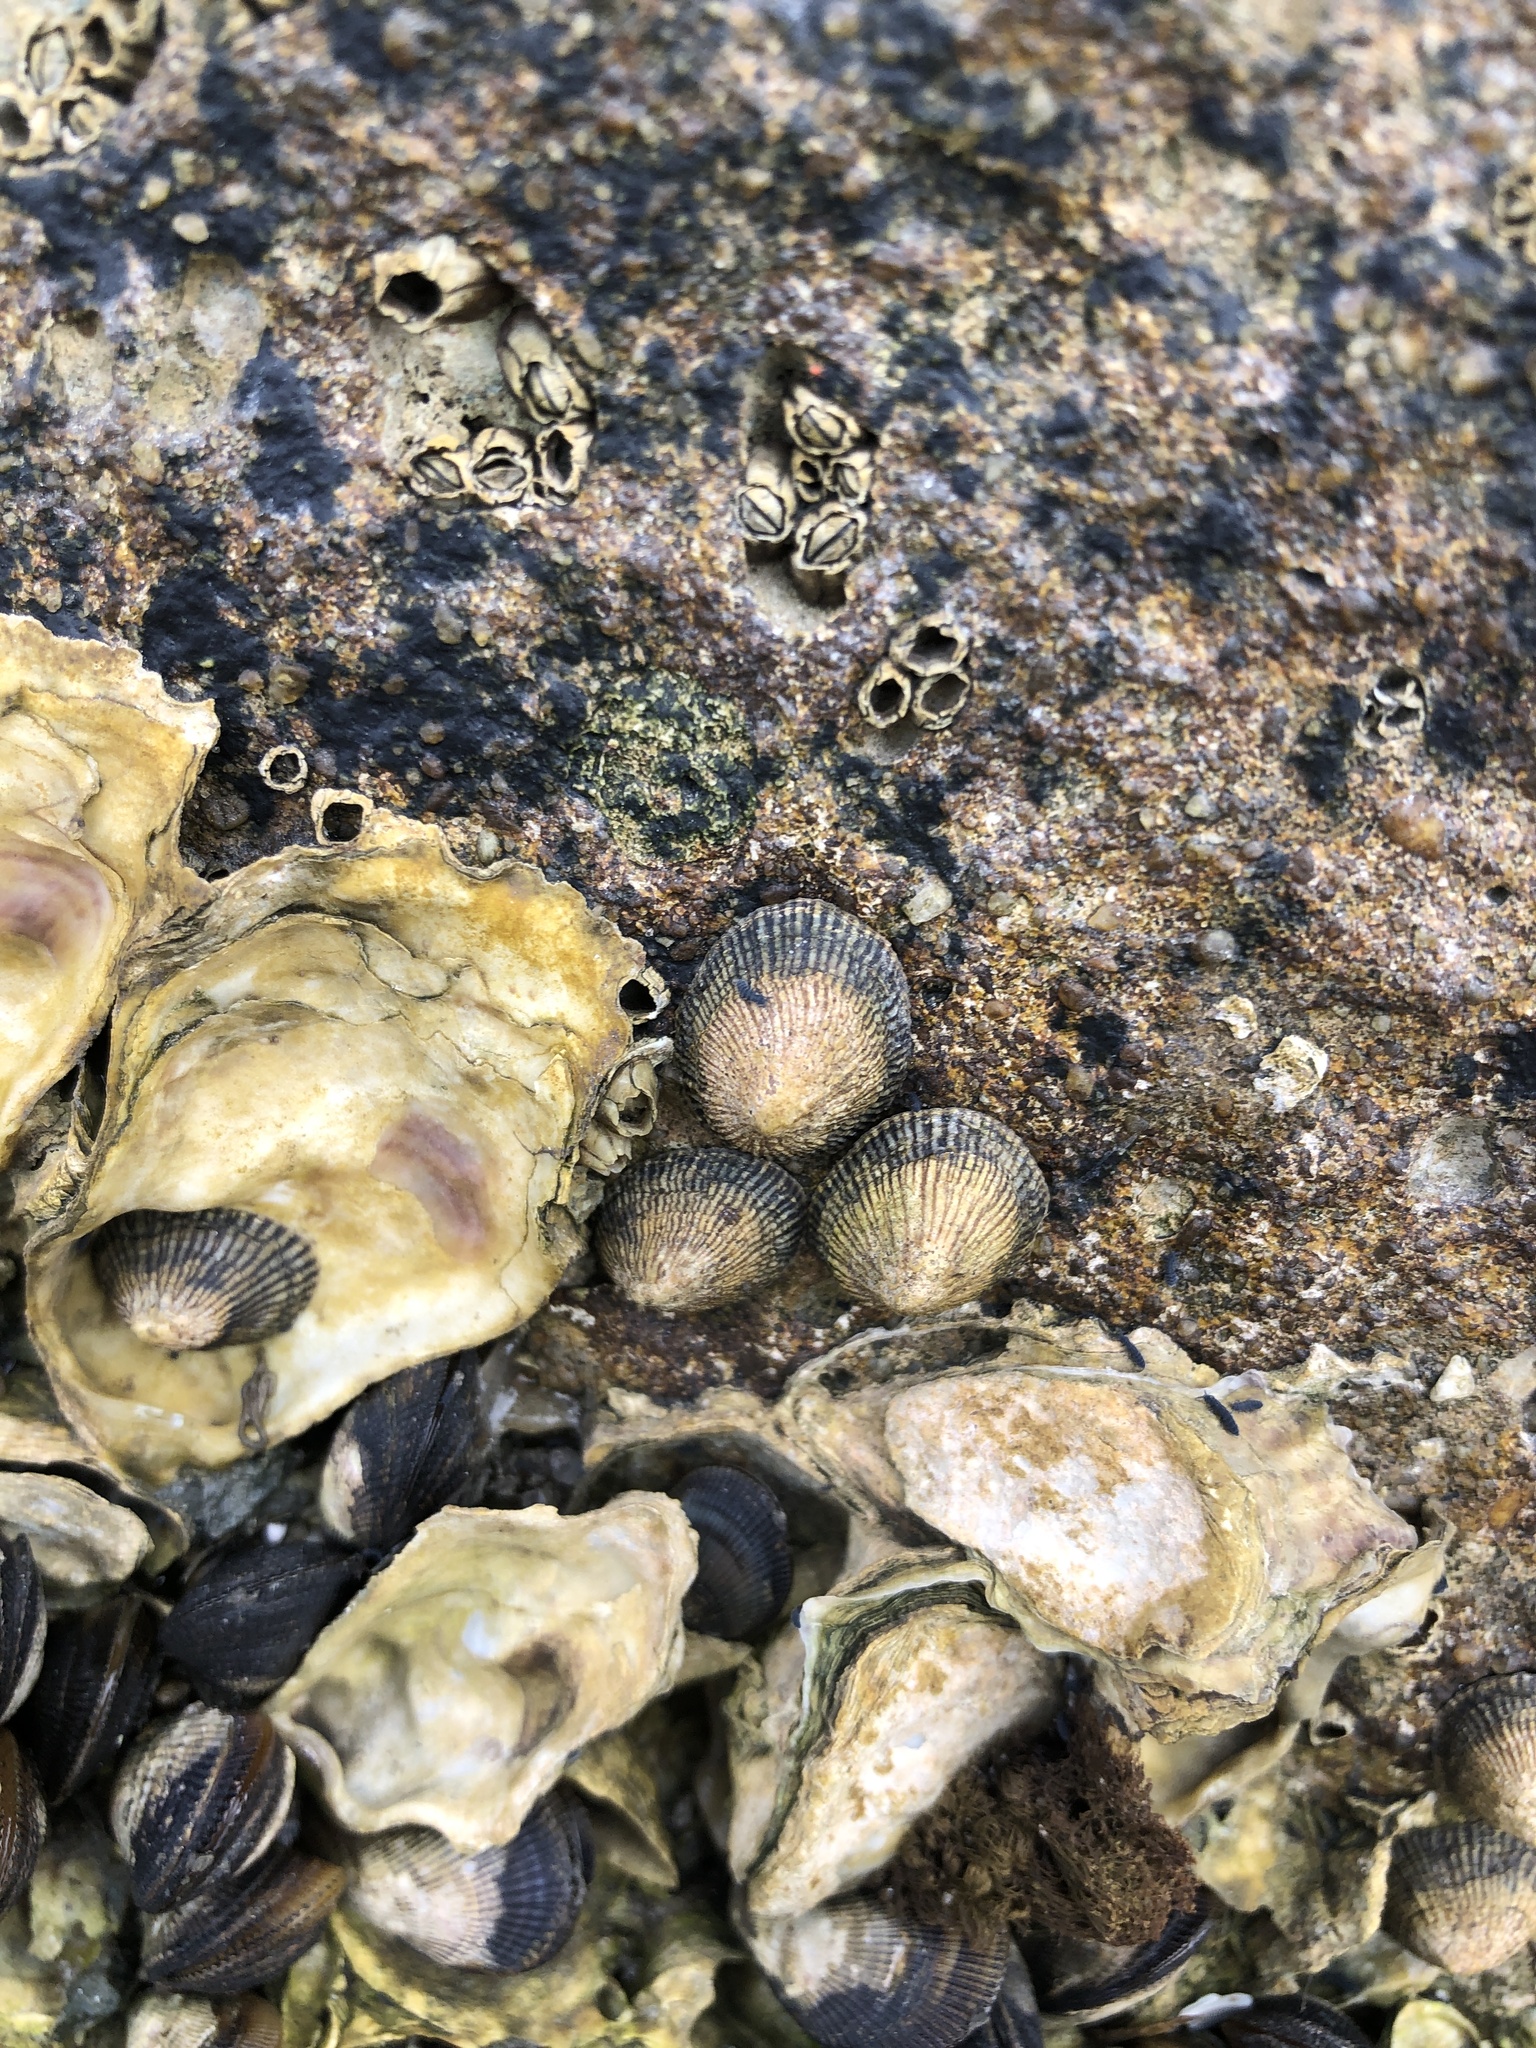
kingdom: Animalia
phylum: Mollusca
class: Gastropoda
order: Siphonariida
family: Siphonariidae
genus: Siphonaria
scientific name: Siphonaria naufragum
